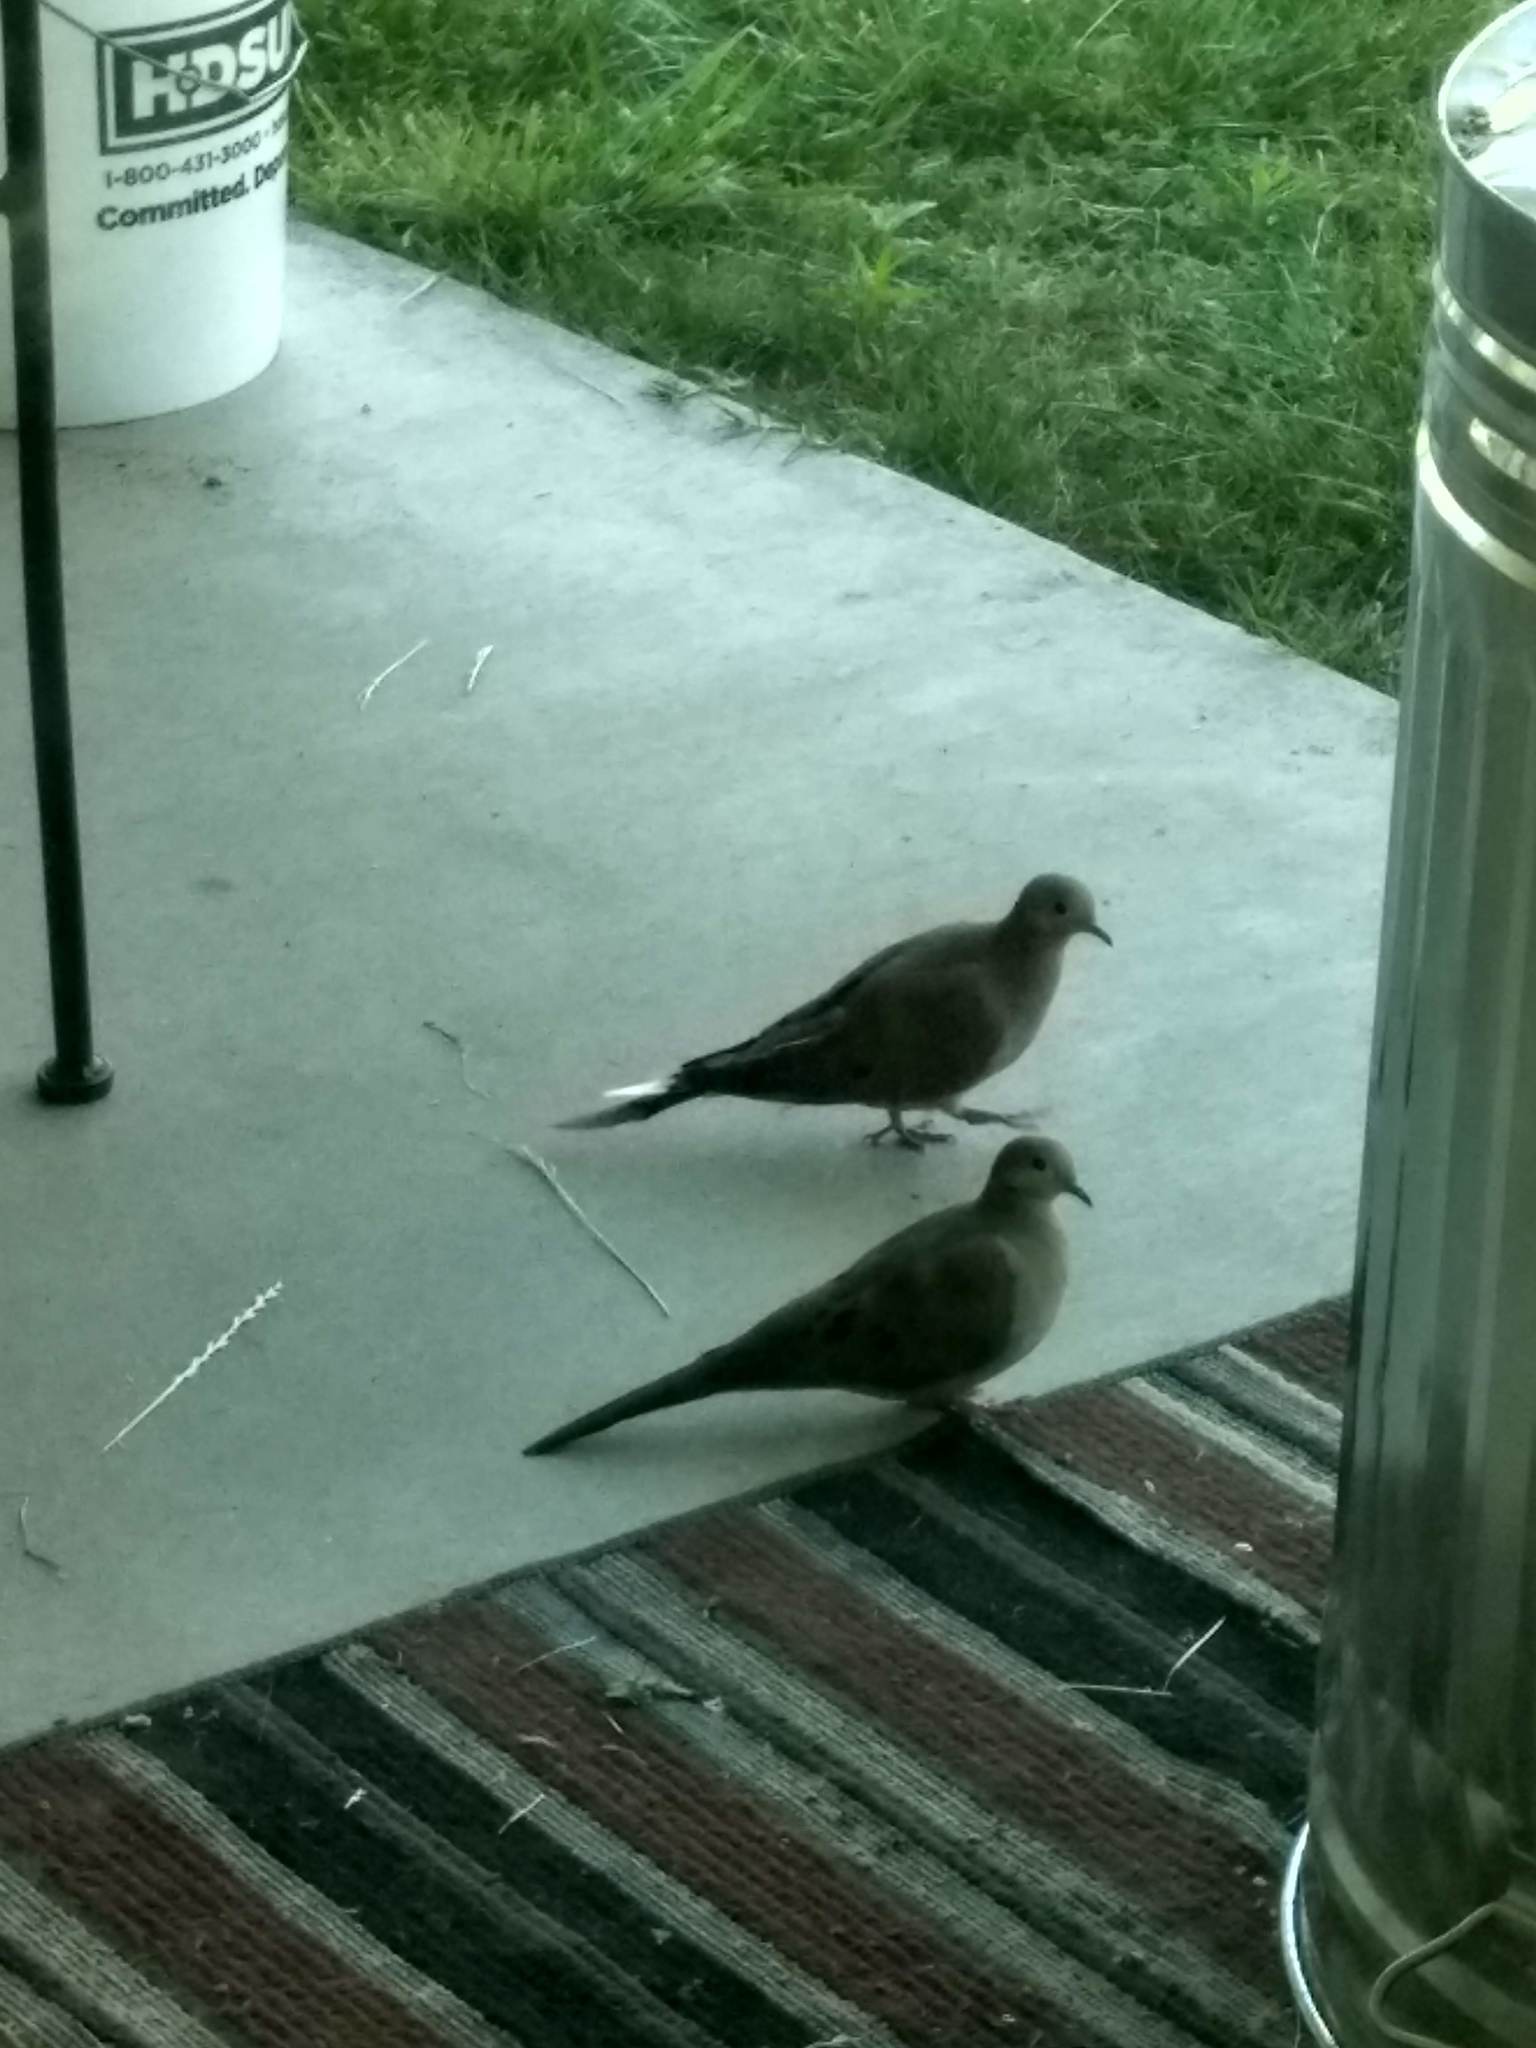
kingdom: Animalia
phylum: Chordata
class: Aves
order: Columbiformes
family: Columbidae
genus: Zenaida
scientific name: Zenaida macroura
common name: Mourning dove
